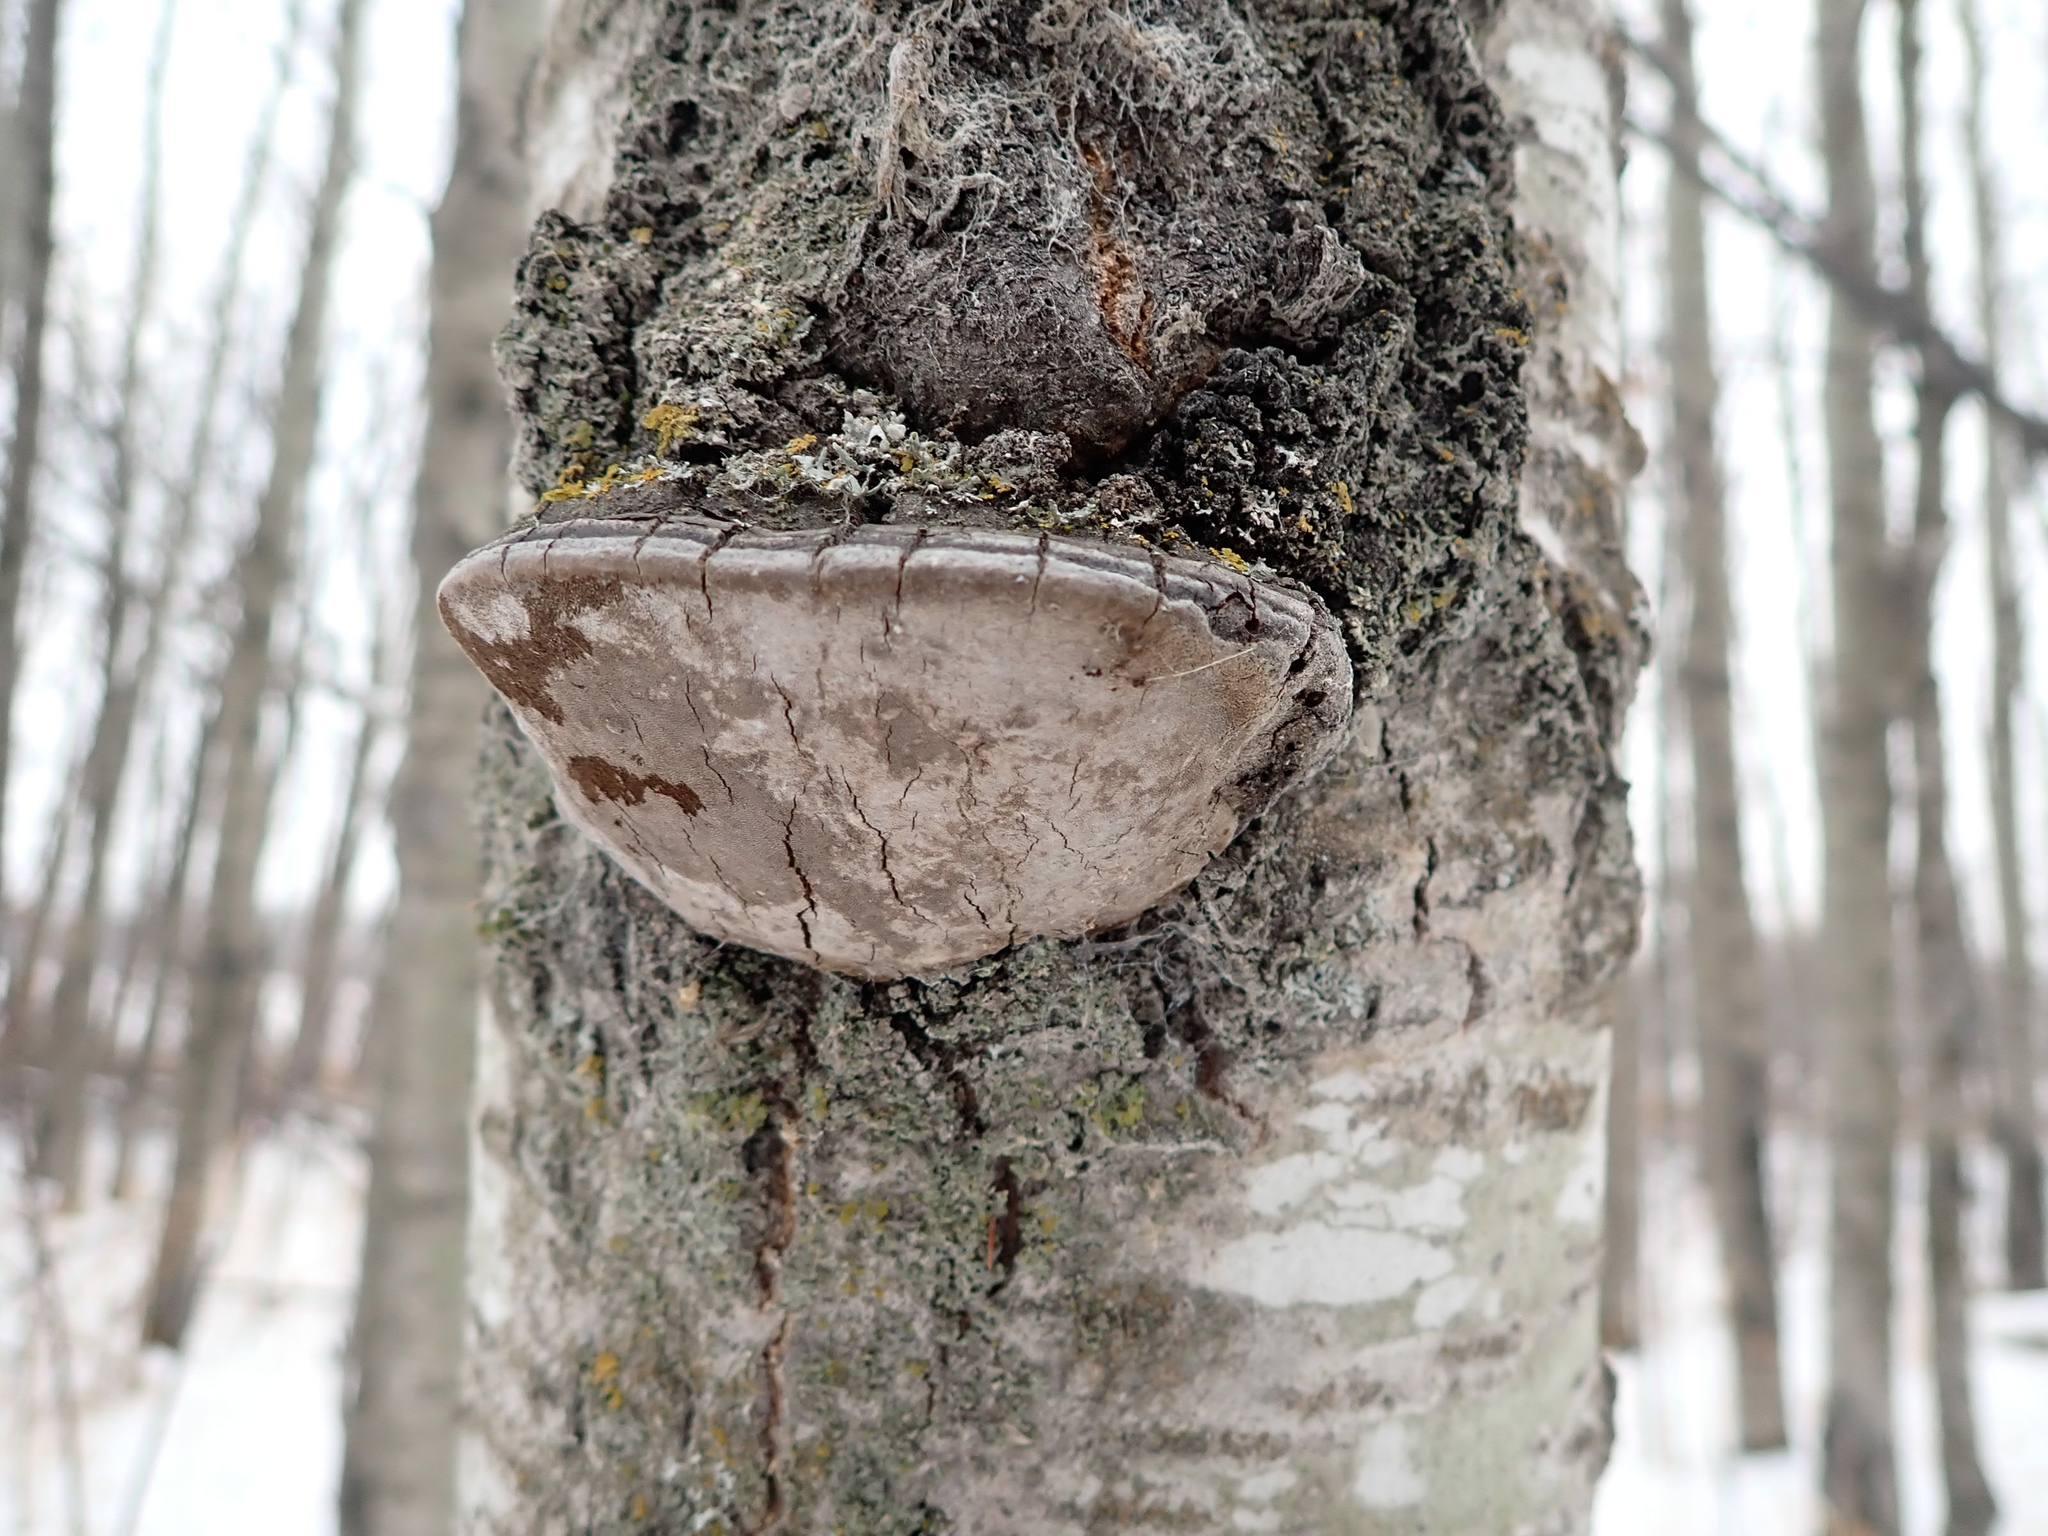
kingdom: Fungi
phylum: Basidiomycota
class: Agaricomycetes
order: Hymenochaetales
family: Hymenochaetaceae
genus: Phellinus
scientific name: Phellinus tremulae
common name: Aspen bracket
